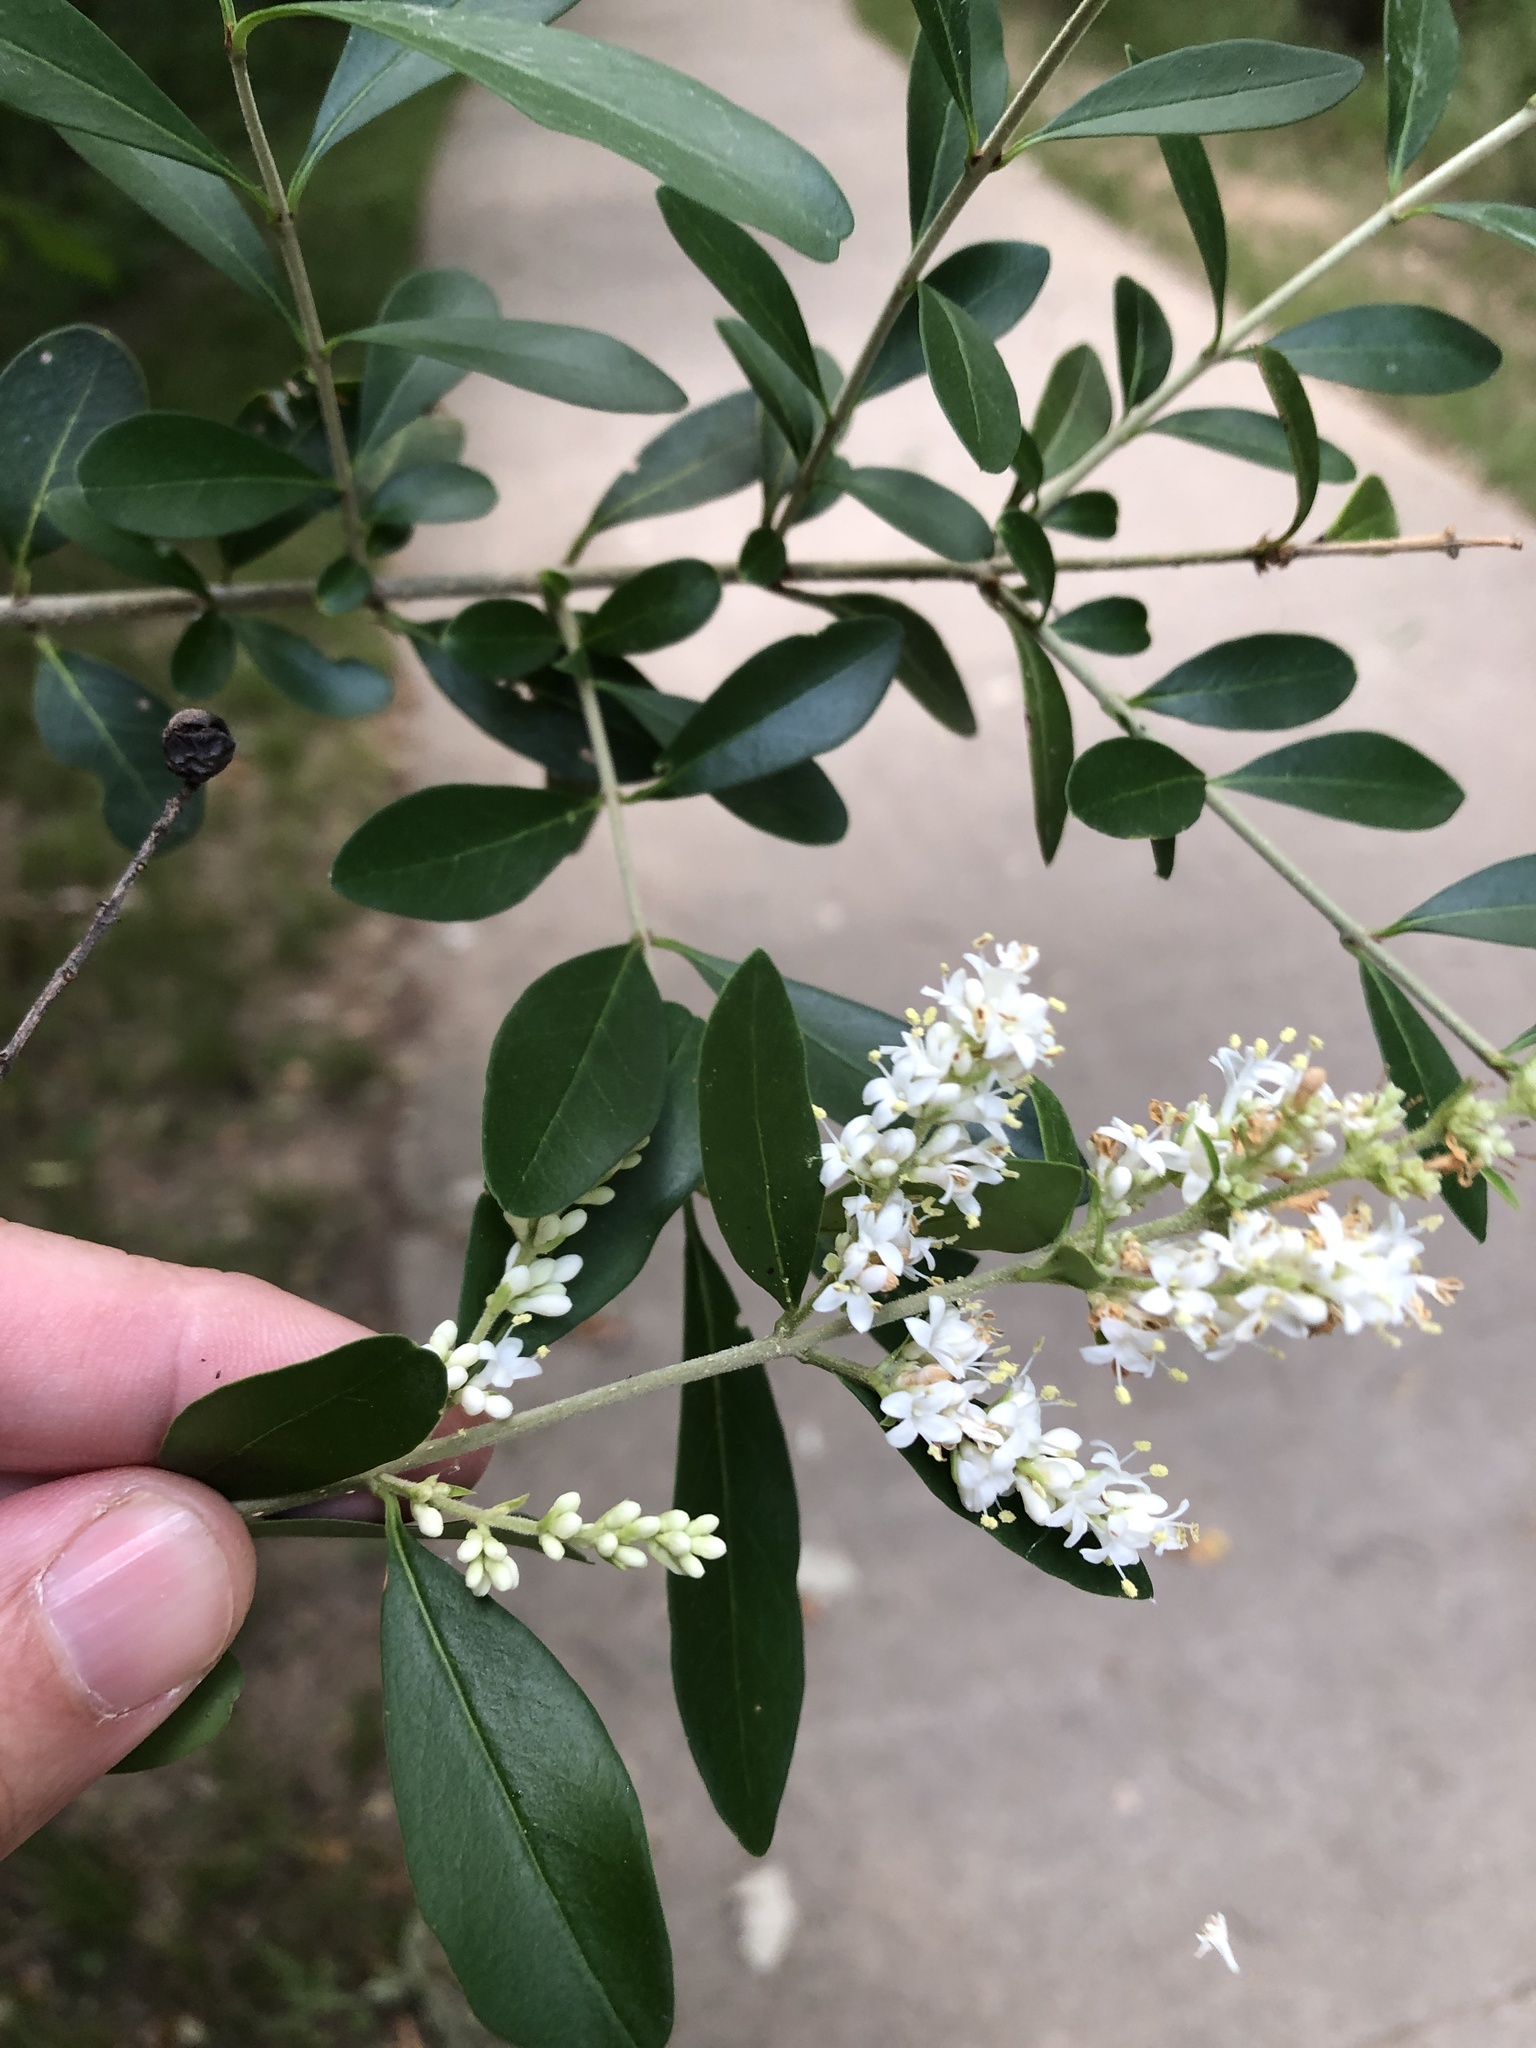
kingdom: Plantae
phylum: Tracheophyta
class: Magnoliopsida
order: Lamiales
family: Oleaceae
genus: Ligustrum
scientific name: Ligustrum quihoui
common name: Waxyleaf privet
